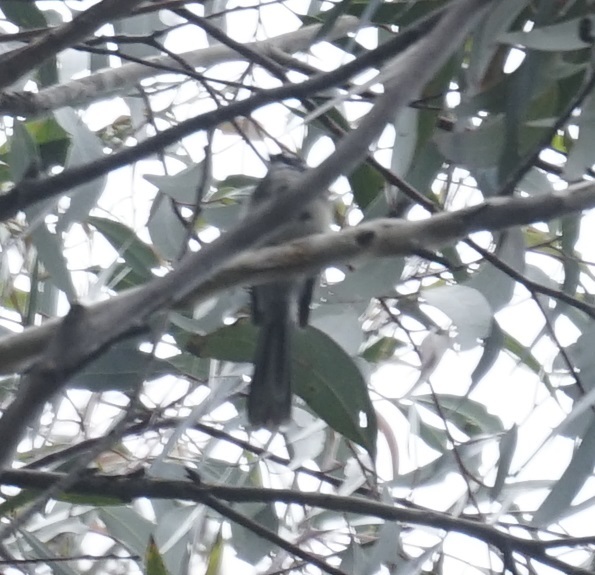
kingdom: Animalia
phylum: Chordata
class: Aves
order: Passeriformes
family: Rhipiduridae
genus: Rhipidura
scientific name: Rhipidura albiscapa
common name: Grey fantail
